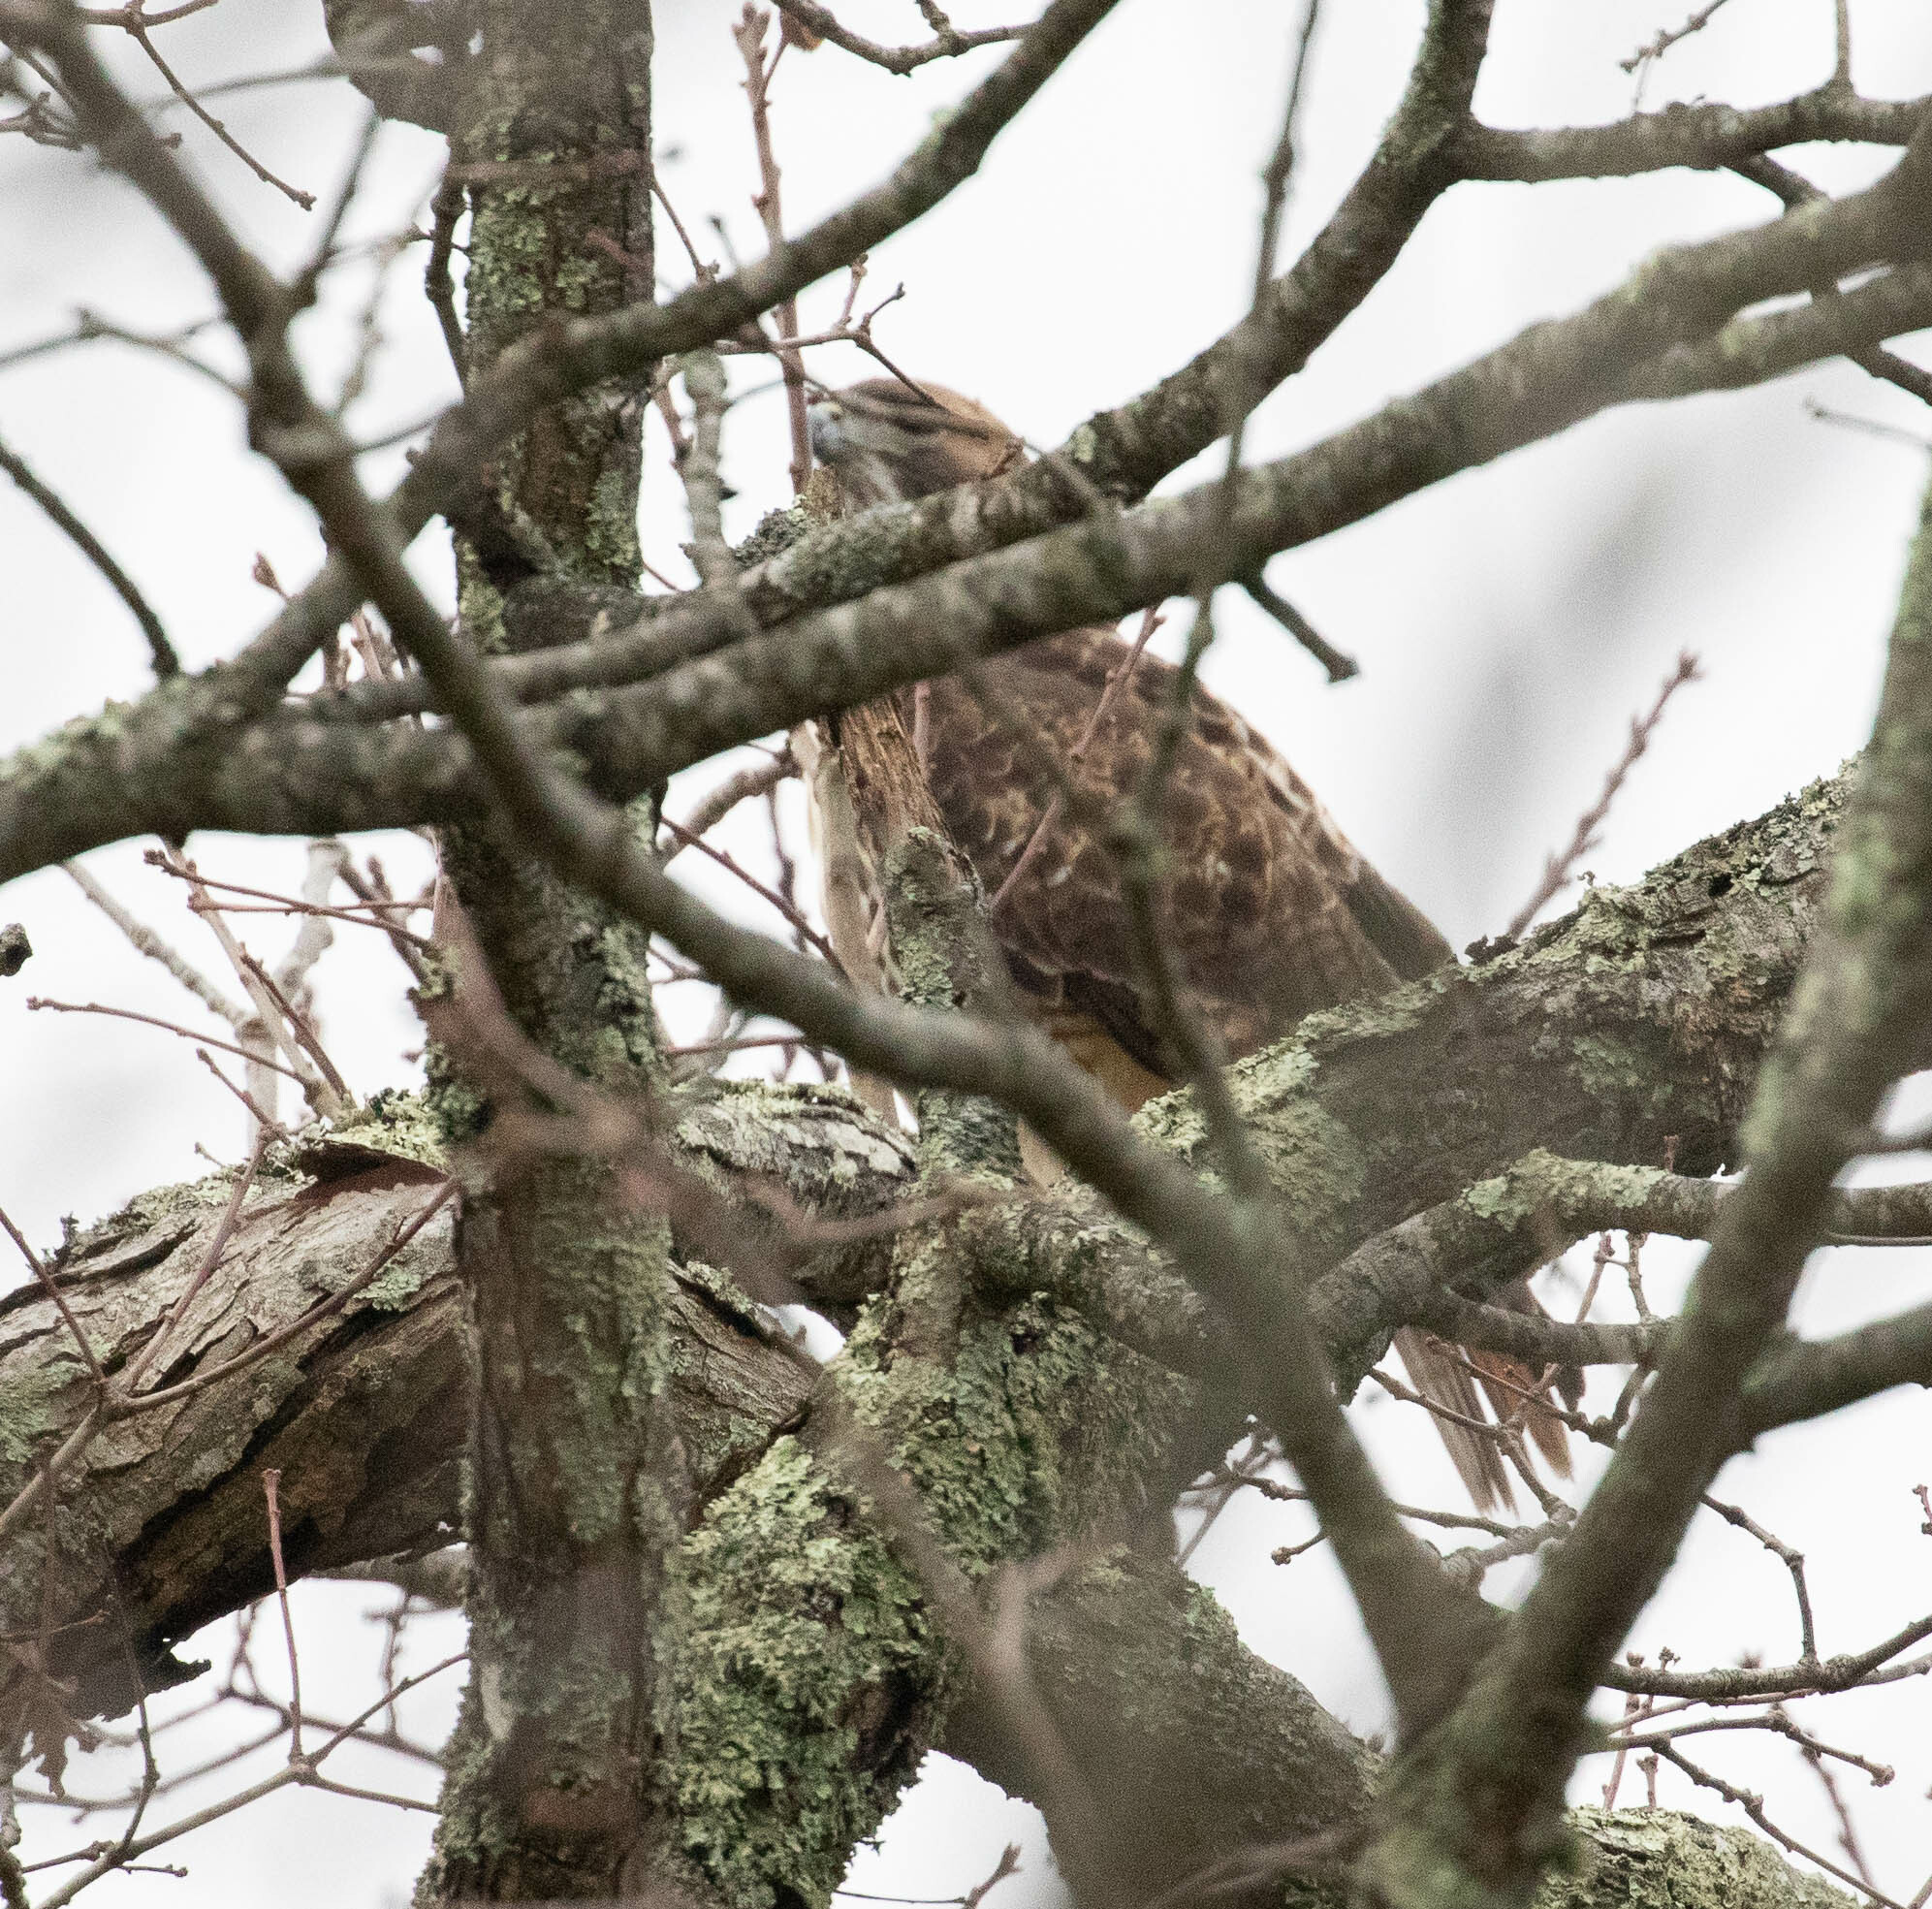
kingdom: Animalia
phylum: Chordata
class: Aves
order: Accipitriformes
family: Accipitridae
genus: Buteo
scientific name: Buteo jamaicensis
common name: Red-tailed hawk
